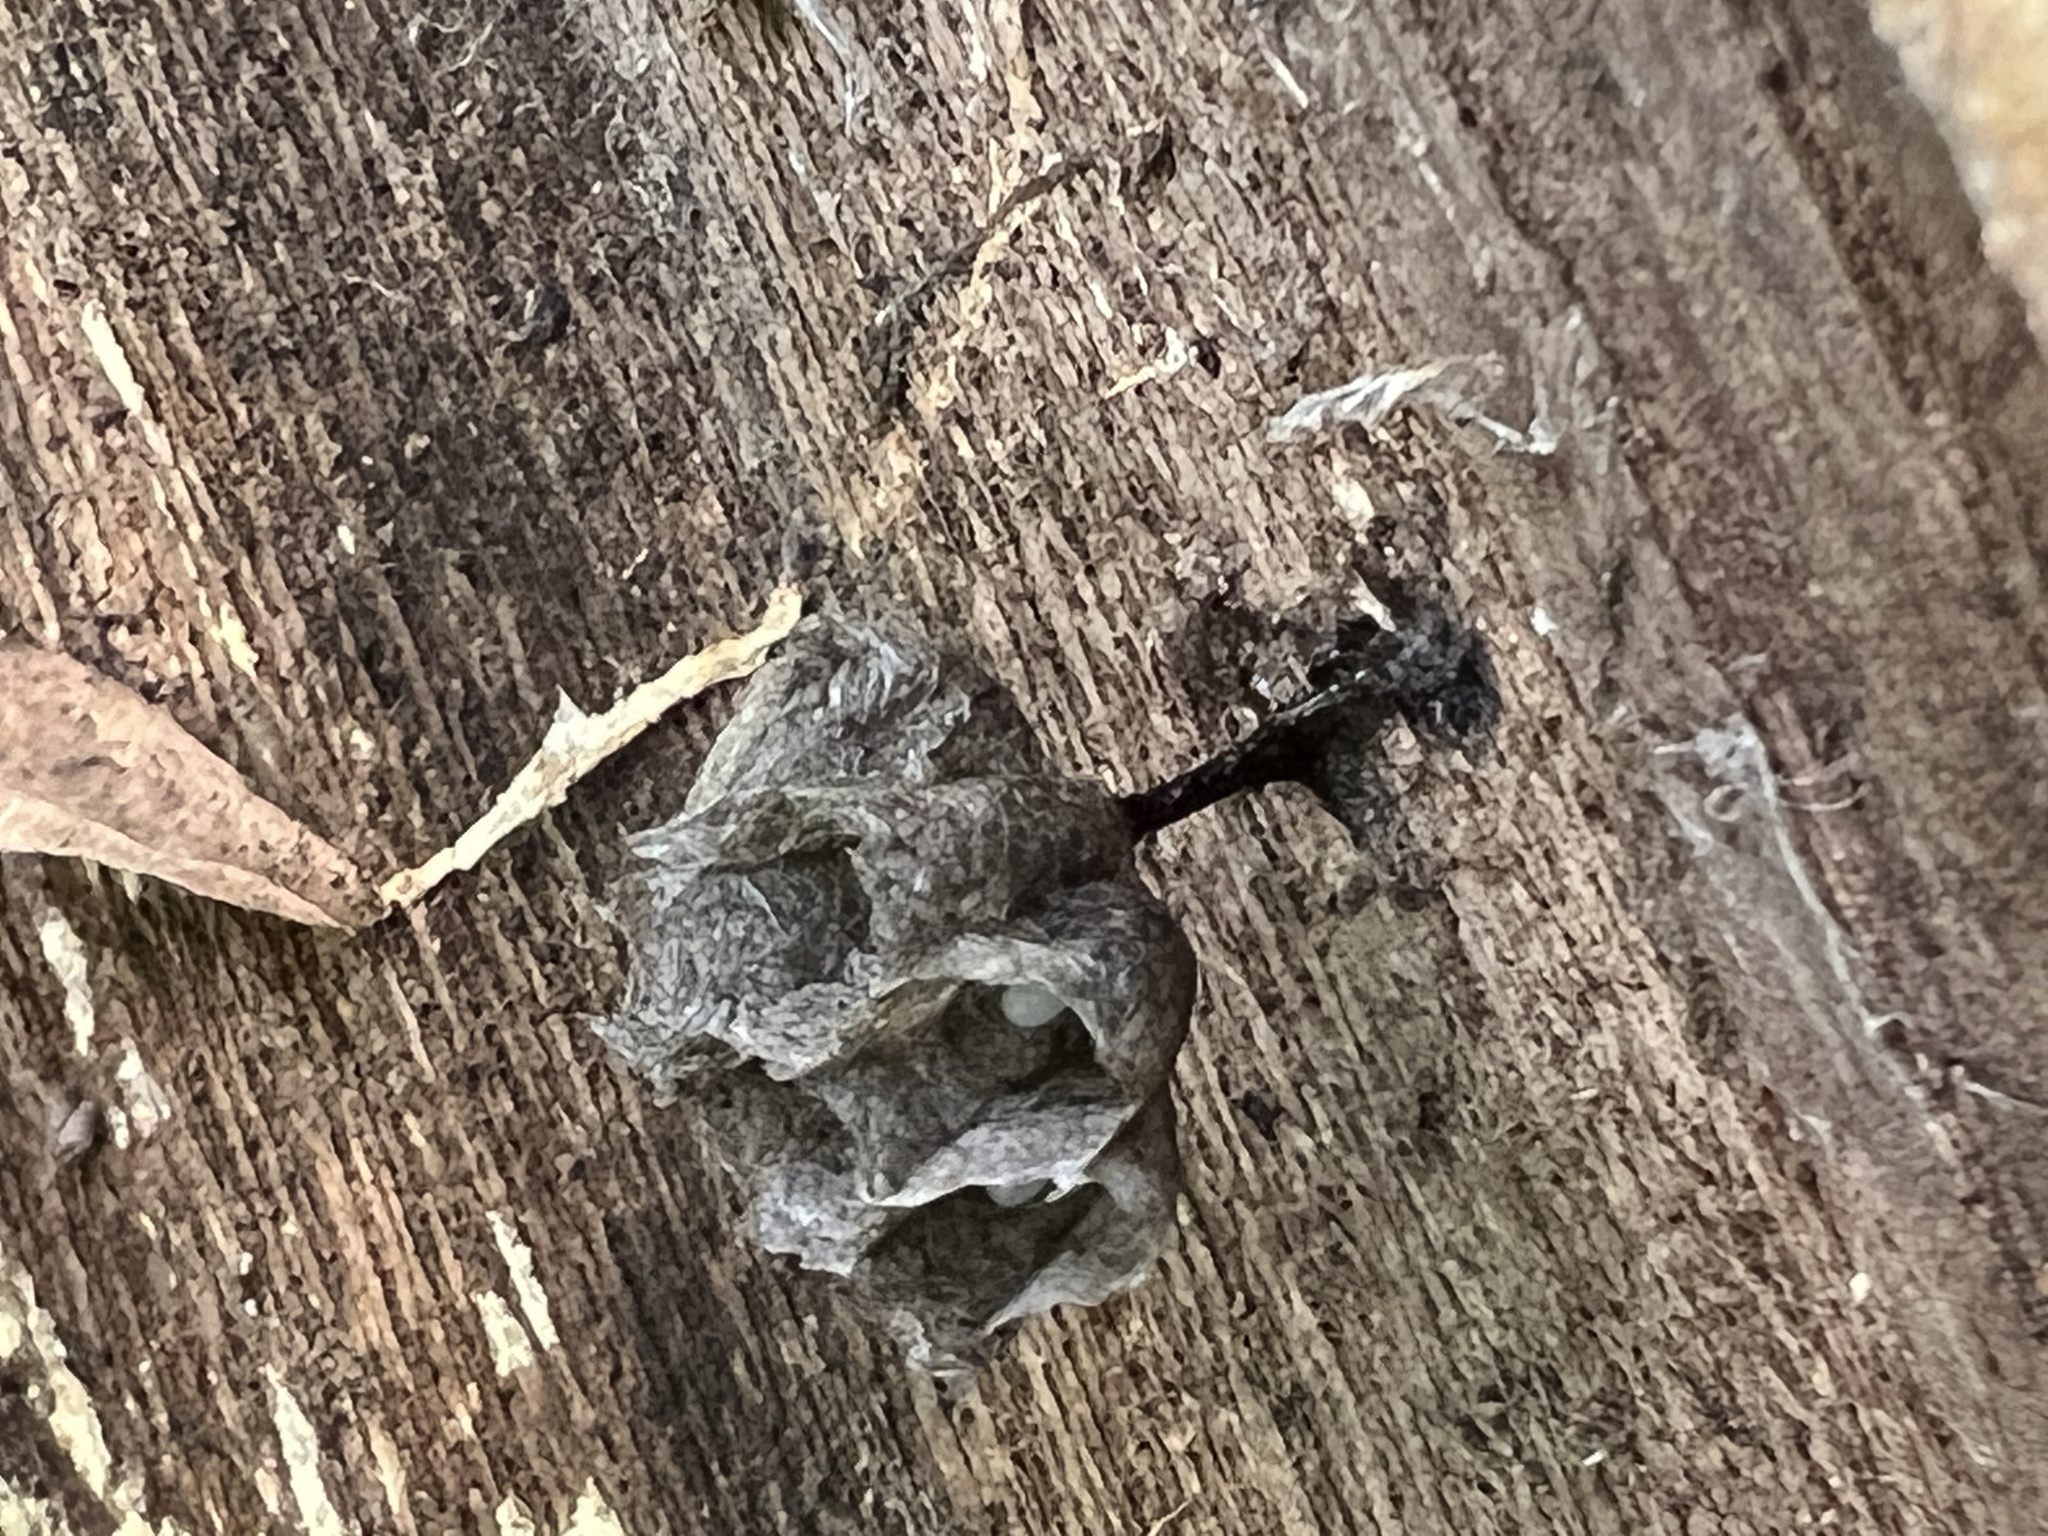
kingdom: Animalia
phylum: Arthropoda
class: Insecta
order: Hymenoptera
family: Vespidae
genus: Fuscopolistes
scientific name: Fuscopolistes
